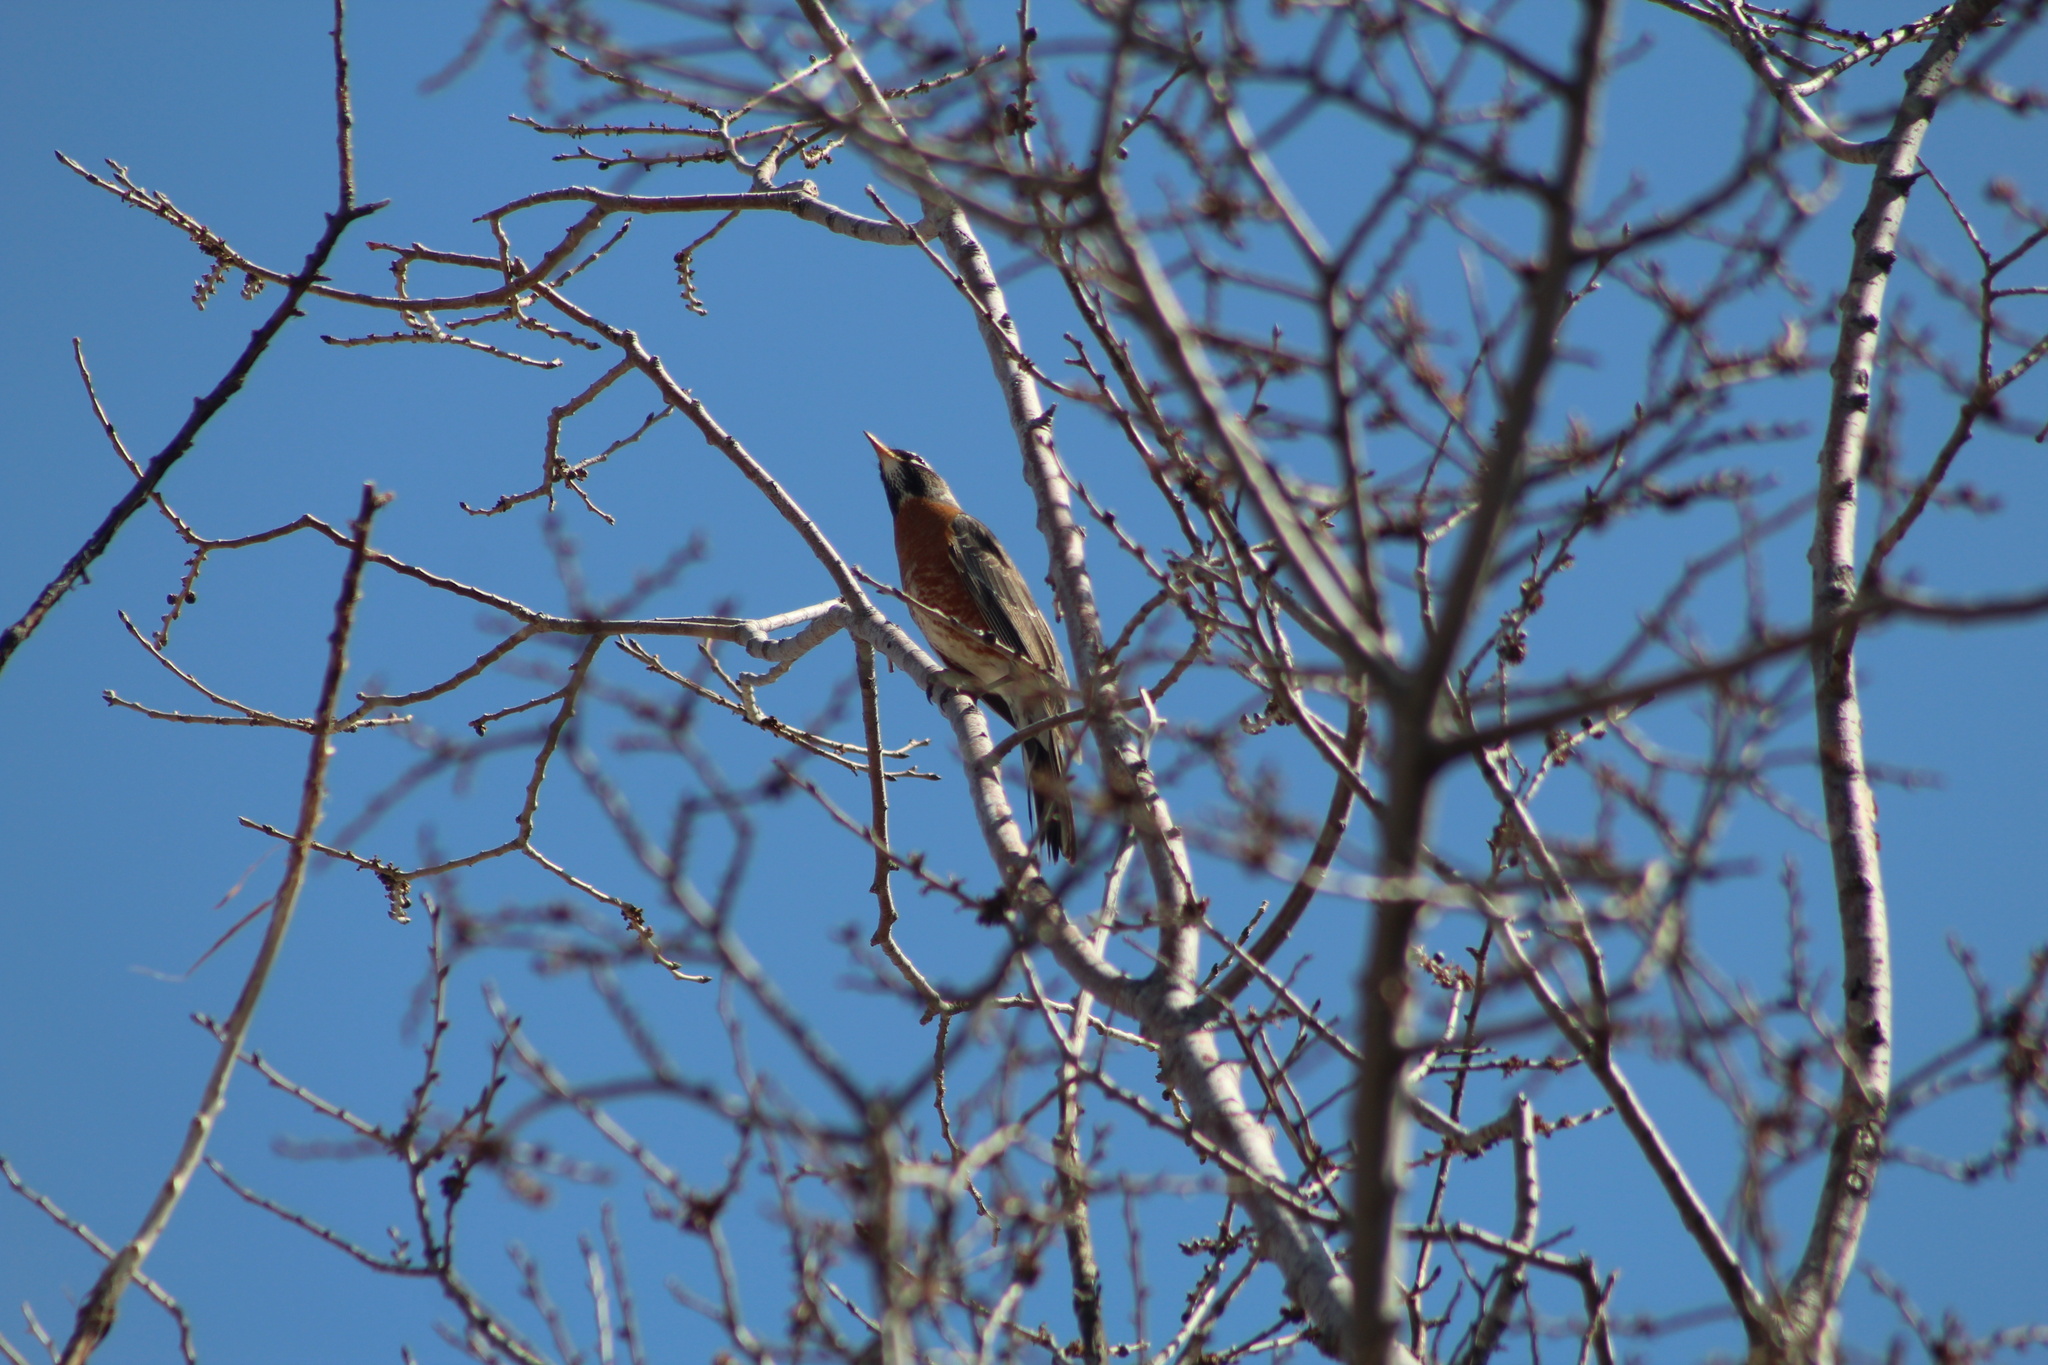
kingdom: Animalia
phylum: Chordata
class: Aves
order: Passeriformes
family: Turdidae
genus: Turdus
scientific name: Turdus migratorius
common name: American robin
